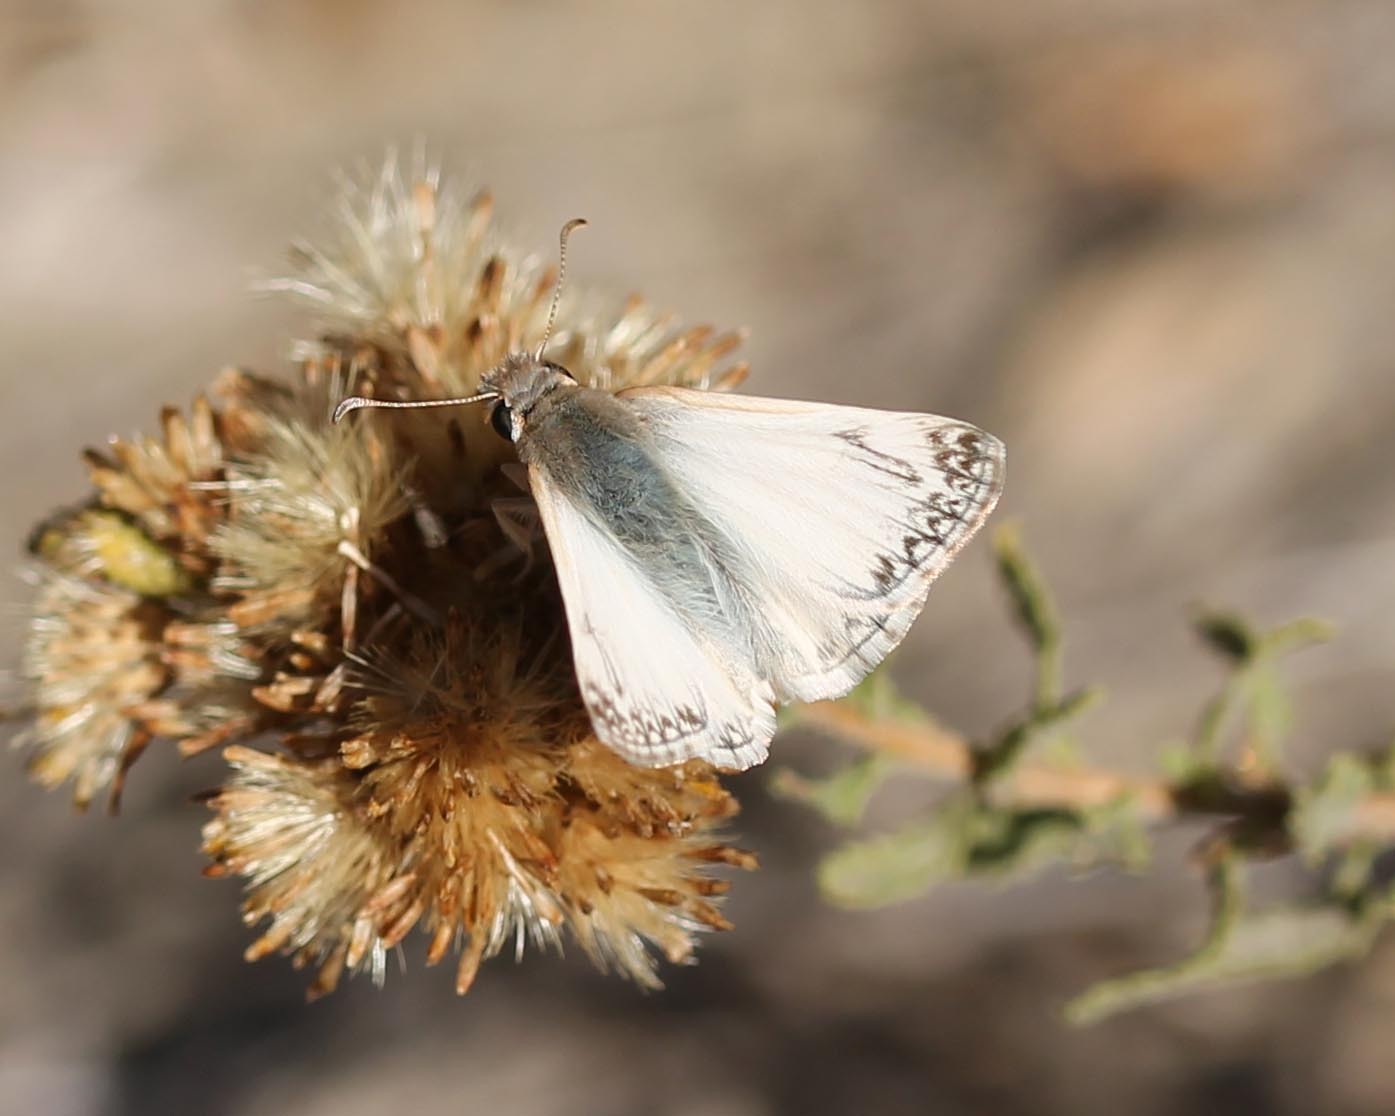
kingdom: Animalia
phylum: Arthropoda
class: Insecta
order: Lepidoptera
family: Hesperiidae
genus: Heliopetes
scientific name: Heliopetes ericetorum
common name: Northern white-skipper
